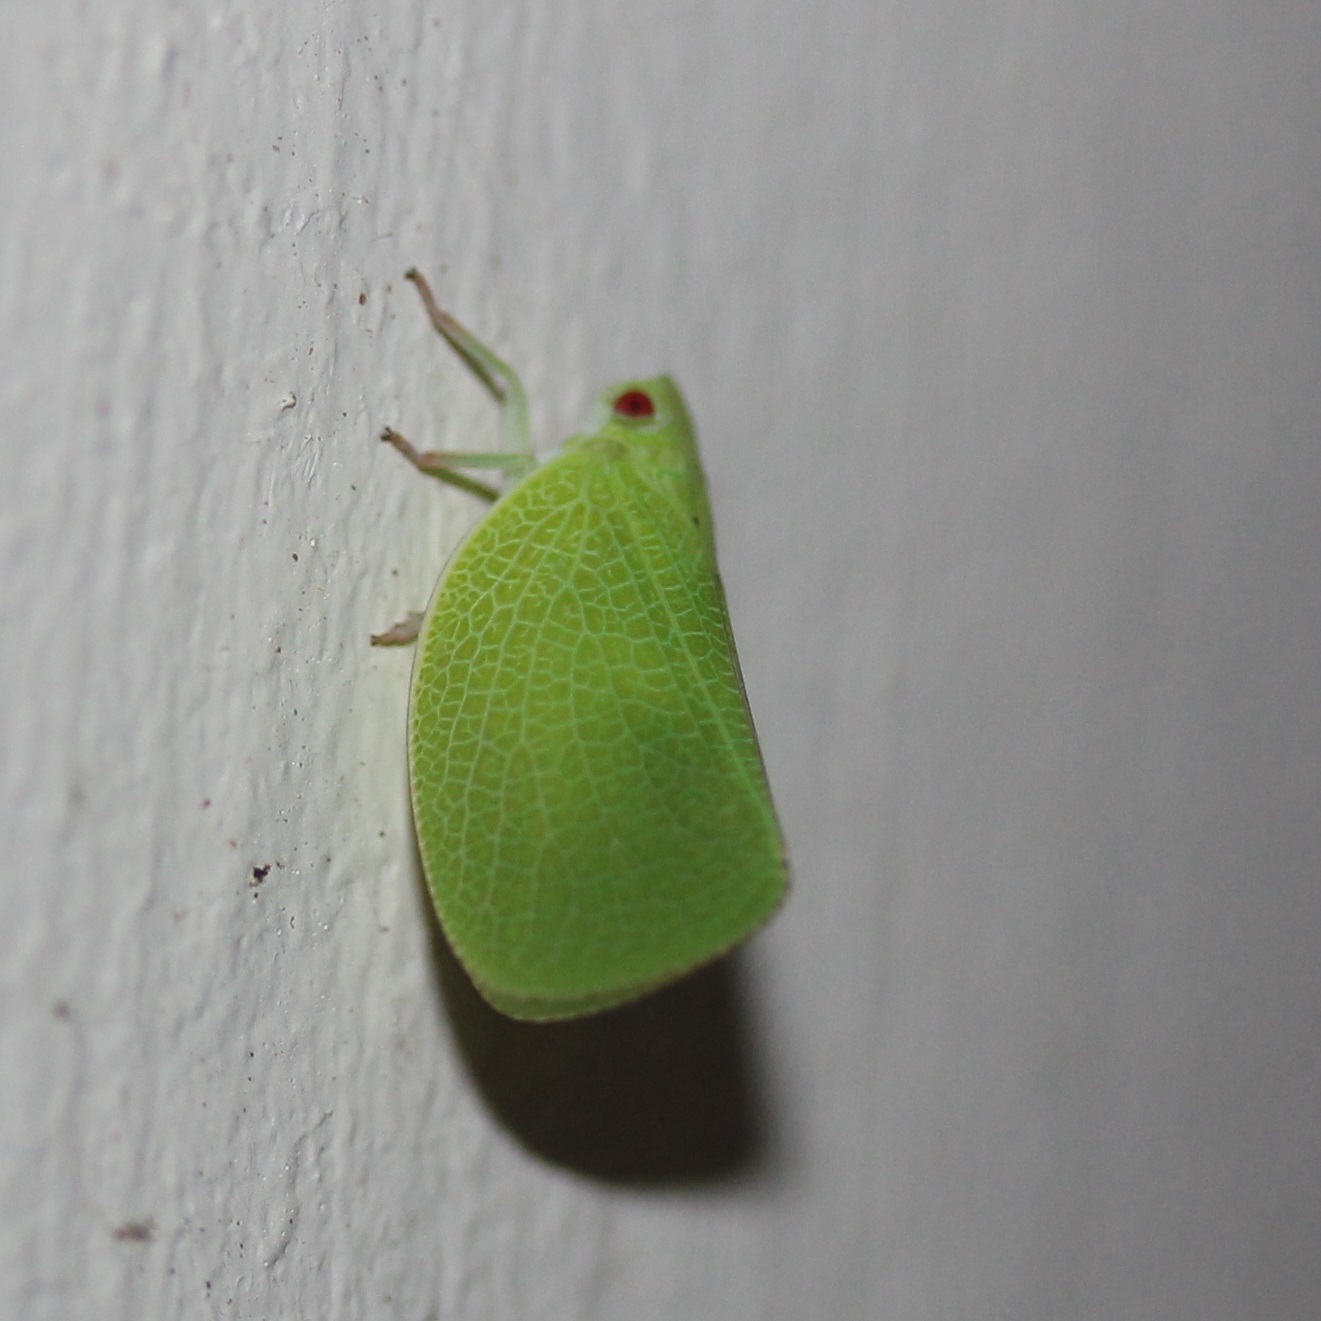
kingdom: Animalia
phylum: Arthropoda
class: Insecta
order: Hemiptera
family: Acanaloniidae
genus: Acanalonia
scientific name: Acanalonia conica
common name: Green cone-headed planthopper
